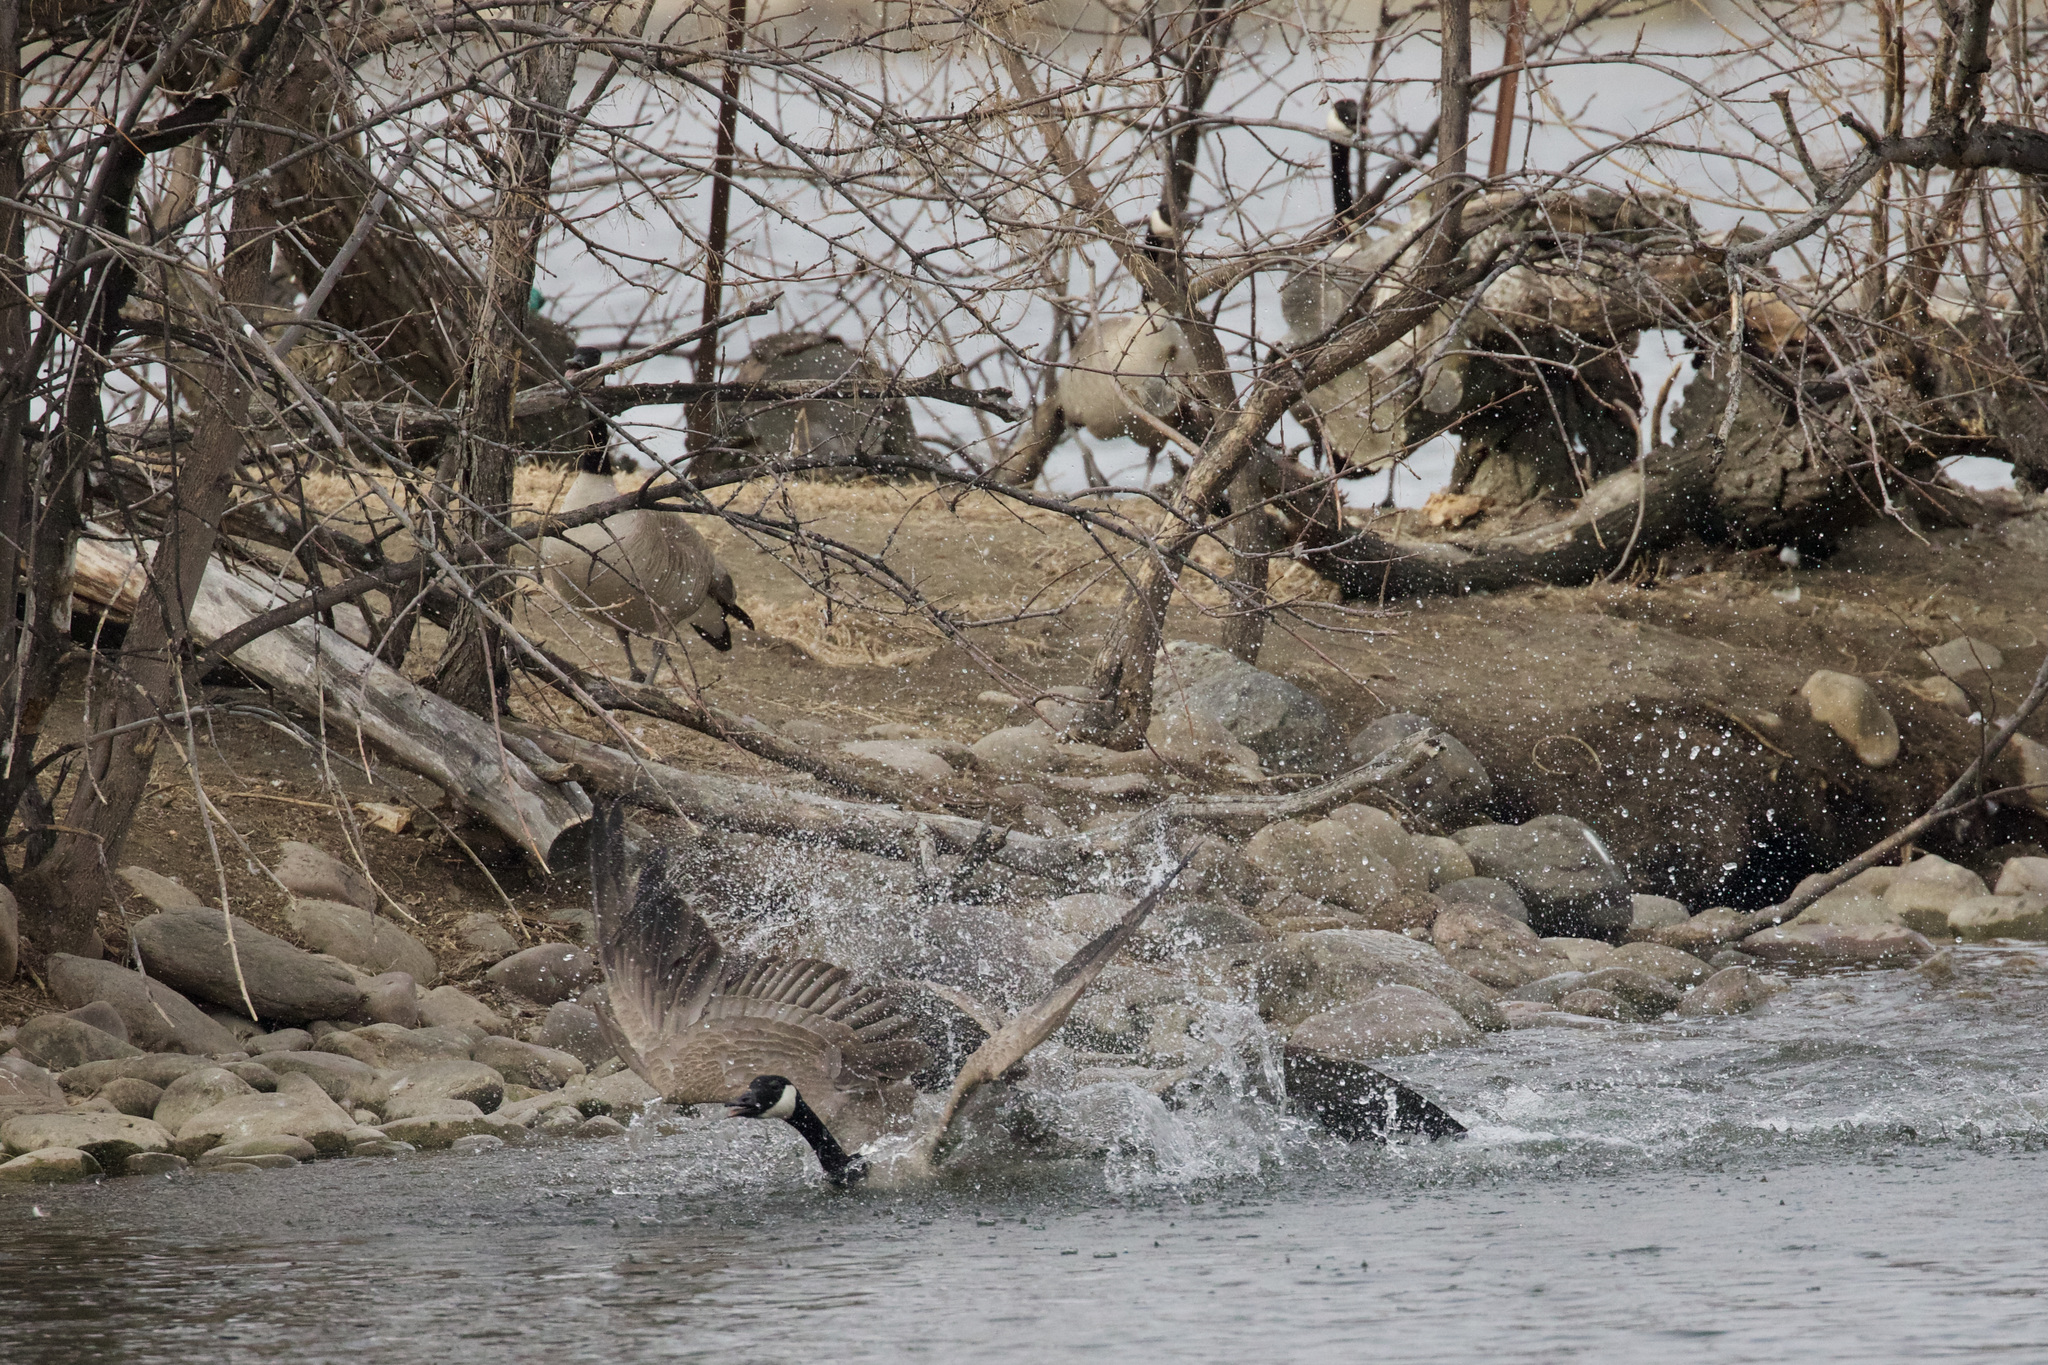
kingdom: Animalia
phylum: Chordata
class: Aves
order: Anseriformes
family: Anatidae
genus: Branta
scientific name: Branta canadensis
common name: Canada goose
